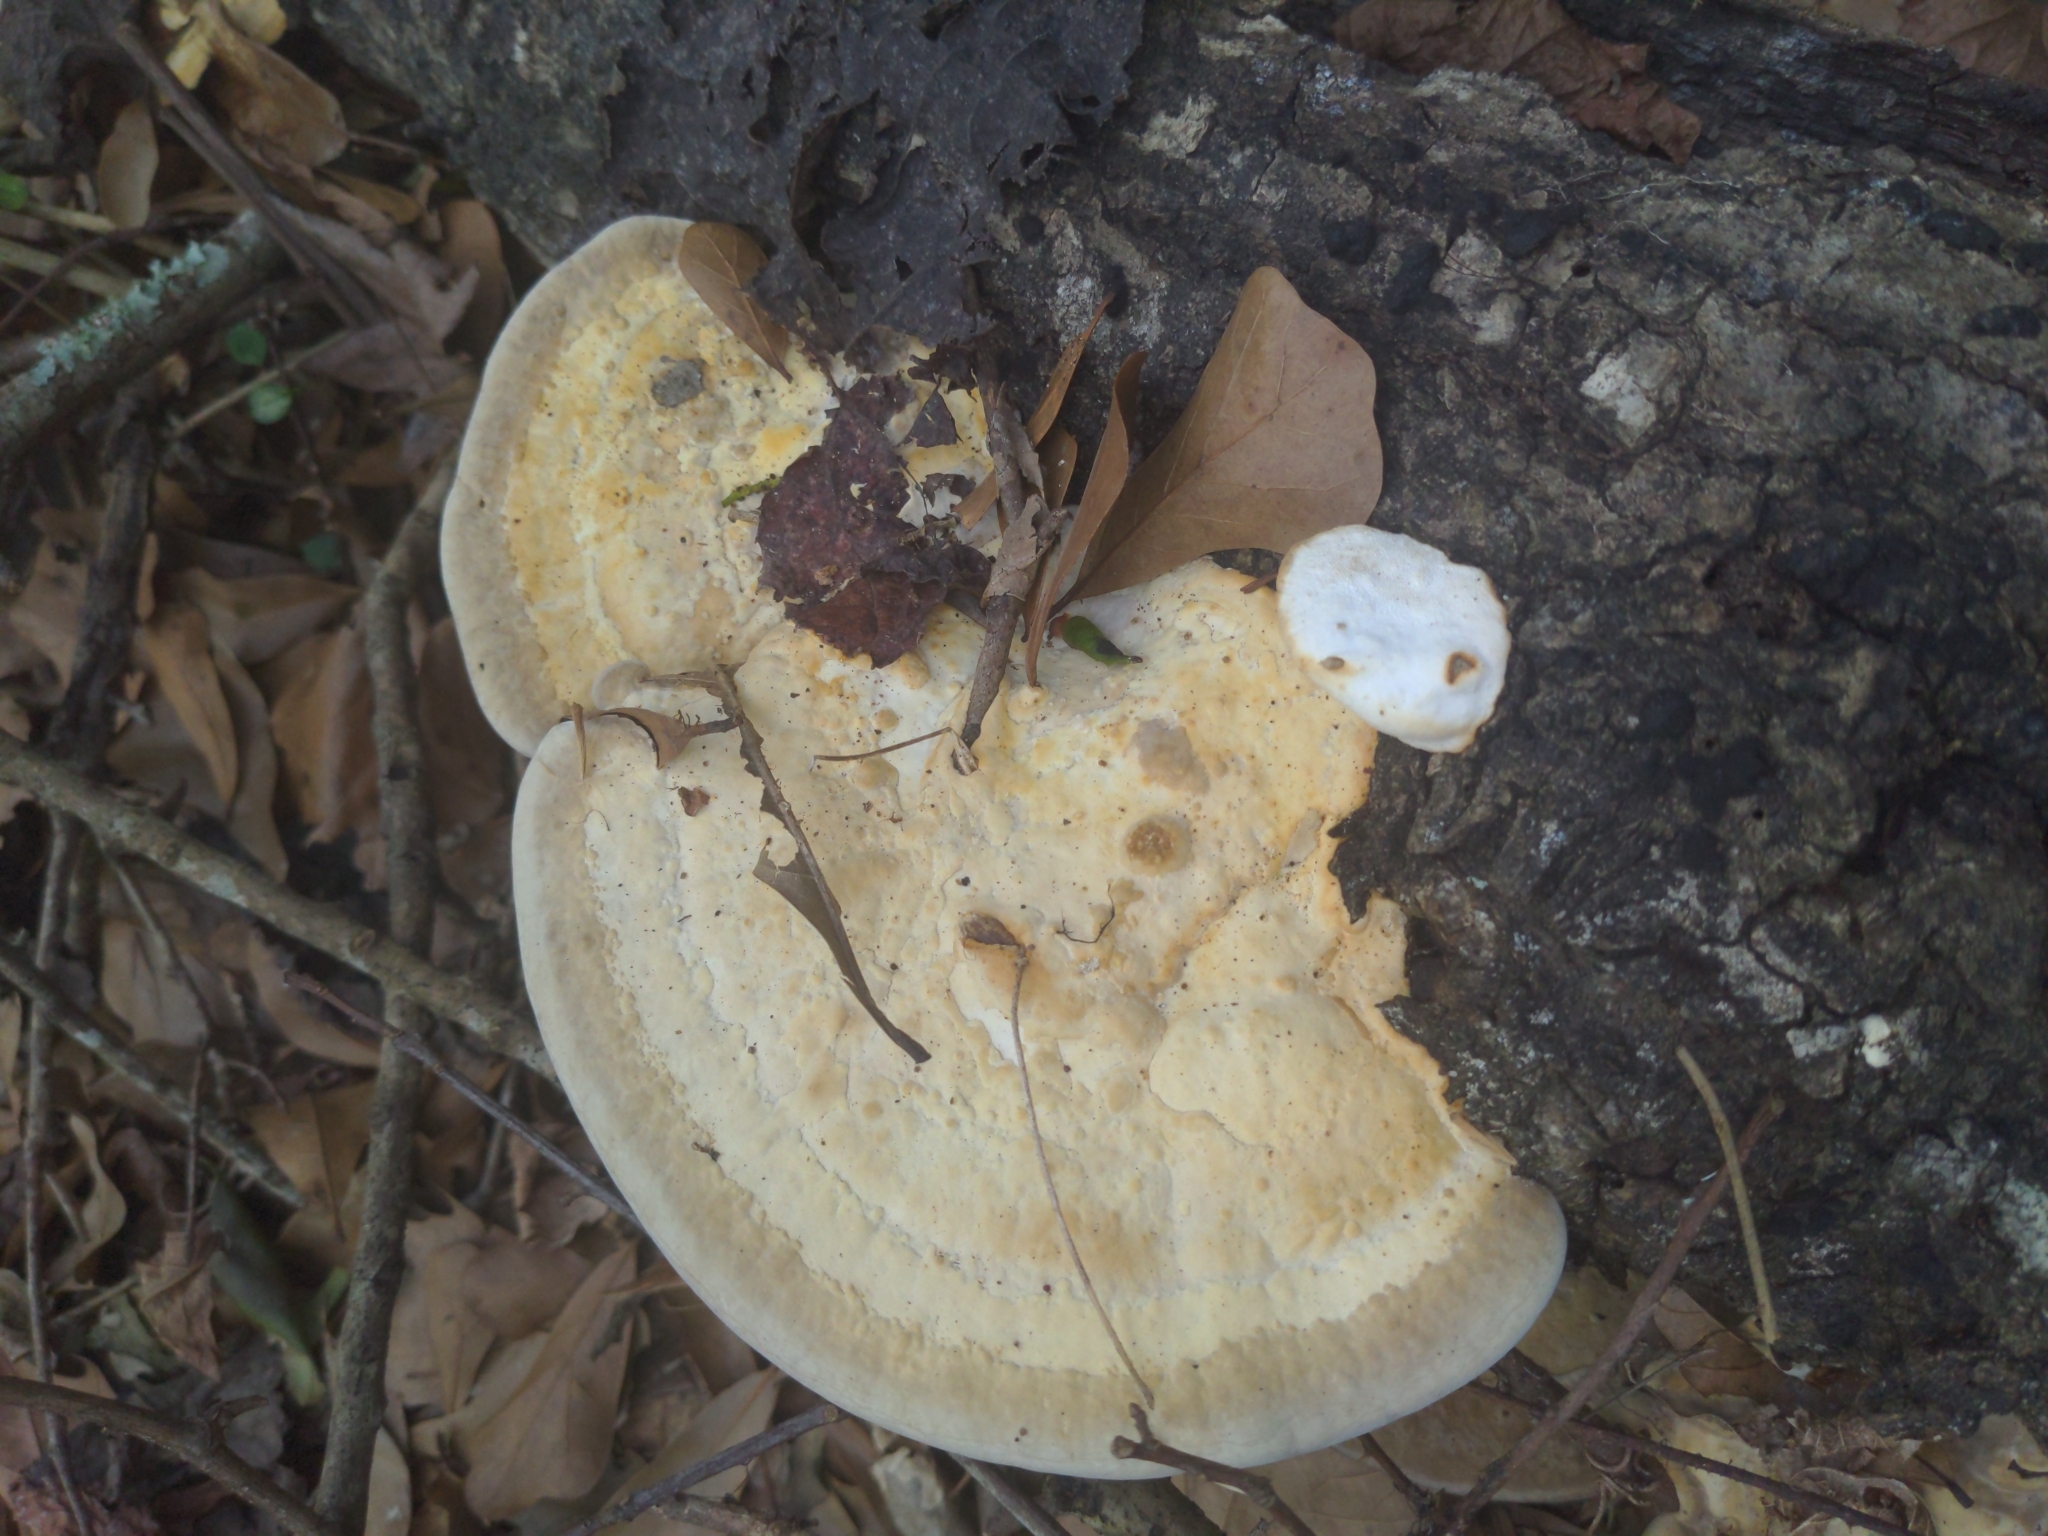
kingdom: Fungi
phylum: Basidiomycota
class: Agaricomycetes
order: Polyporales
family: Polyporaceae
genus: Trametes
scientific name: Trametes lactinea
